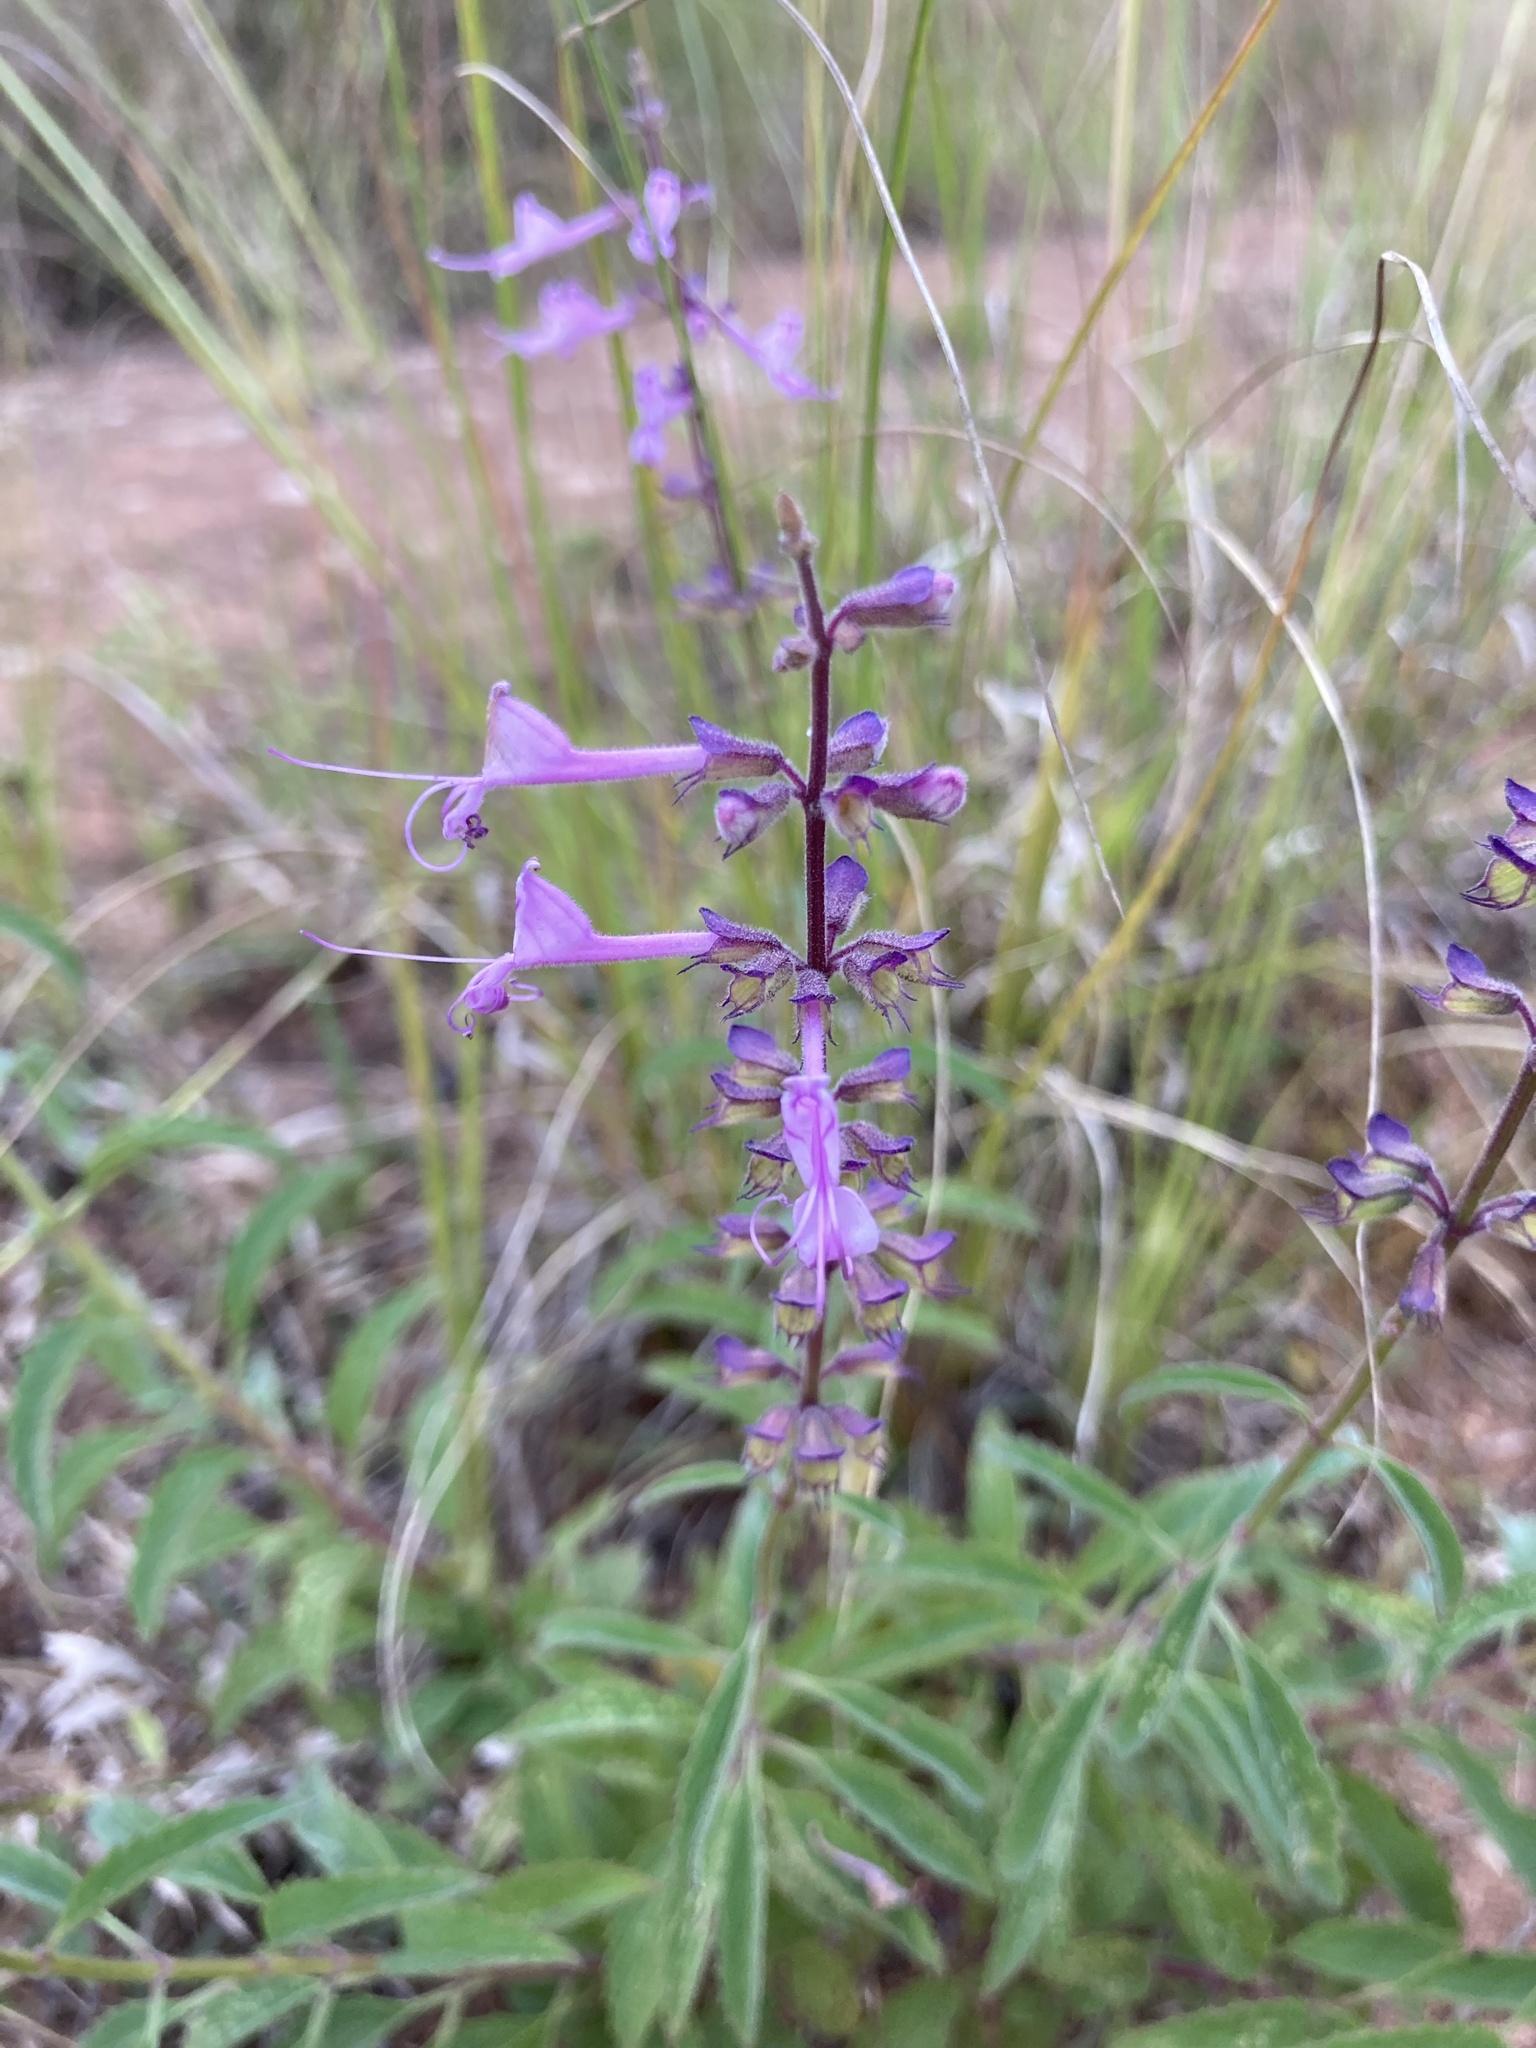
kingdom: Plantae
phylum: Tracheophyta
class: Magnoliopsida
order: Lamiales
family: Lamiaceae
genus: Syncolostemon
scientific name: Syncolostemon canescens
